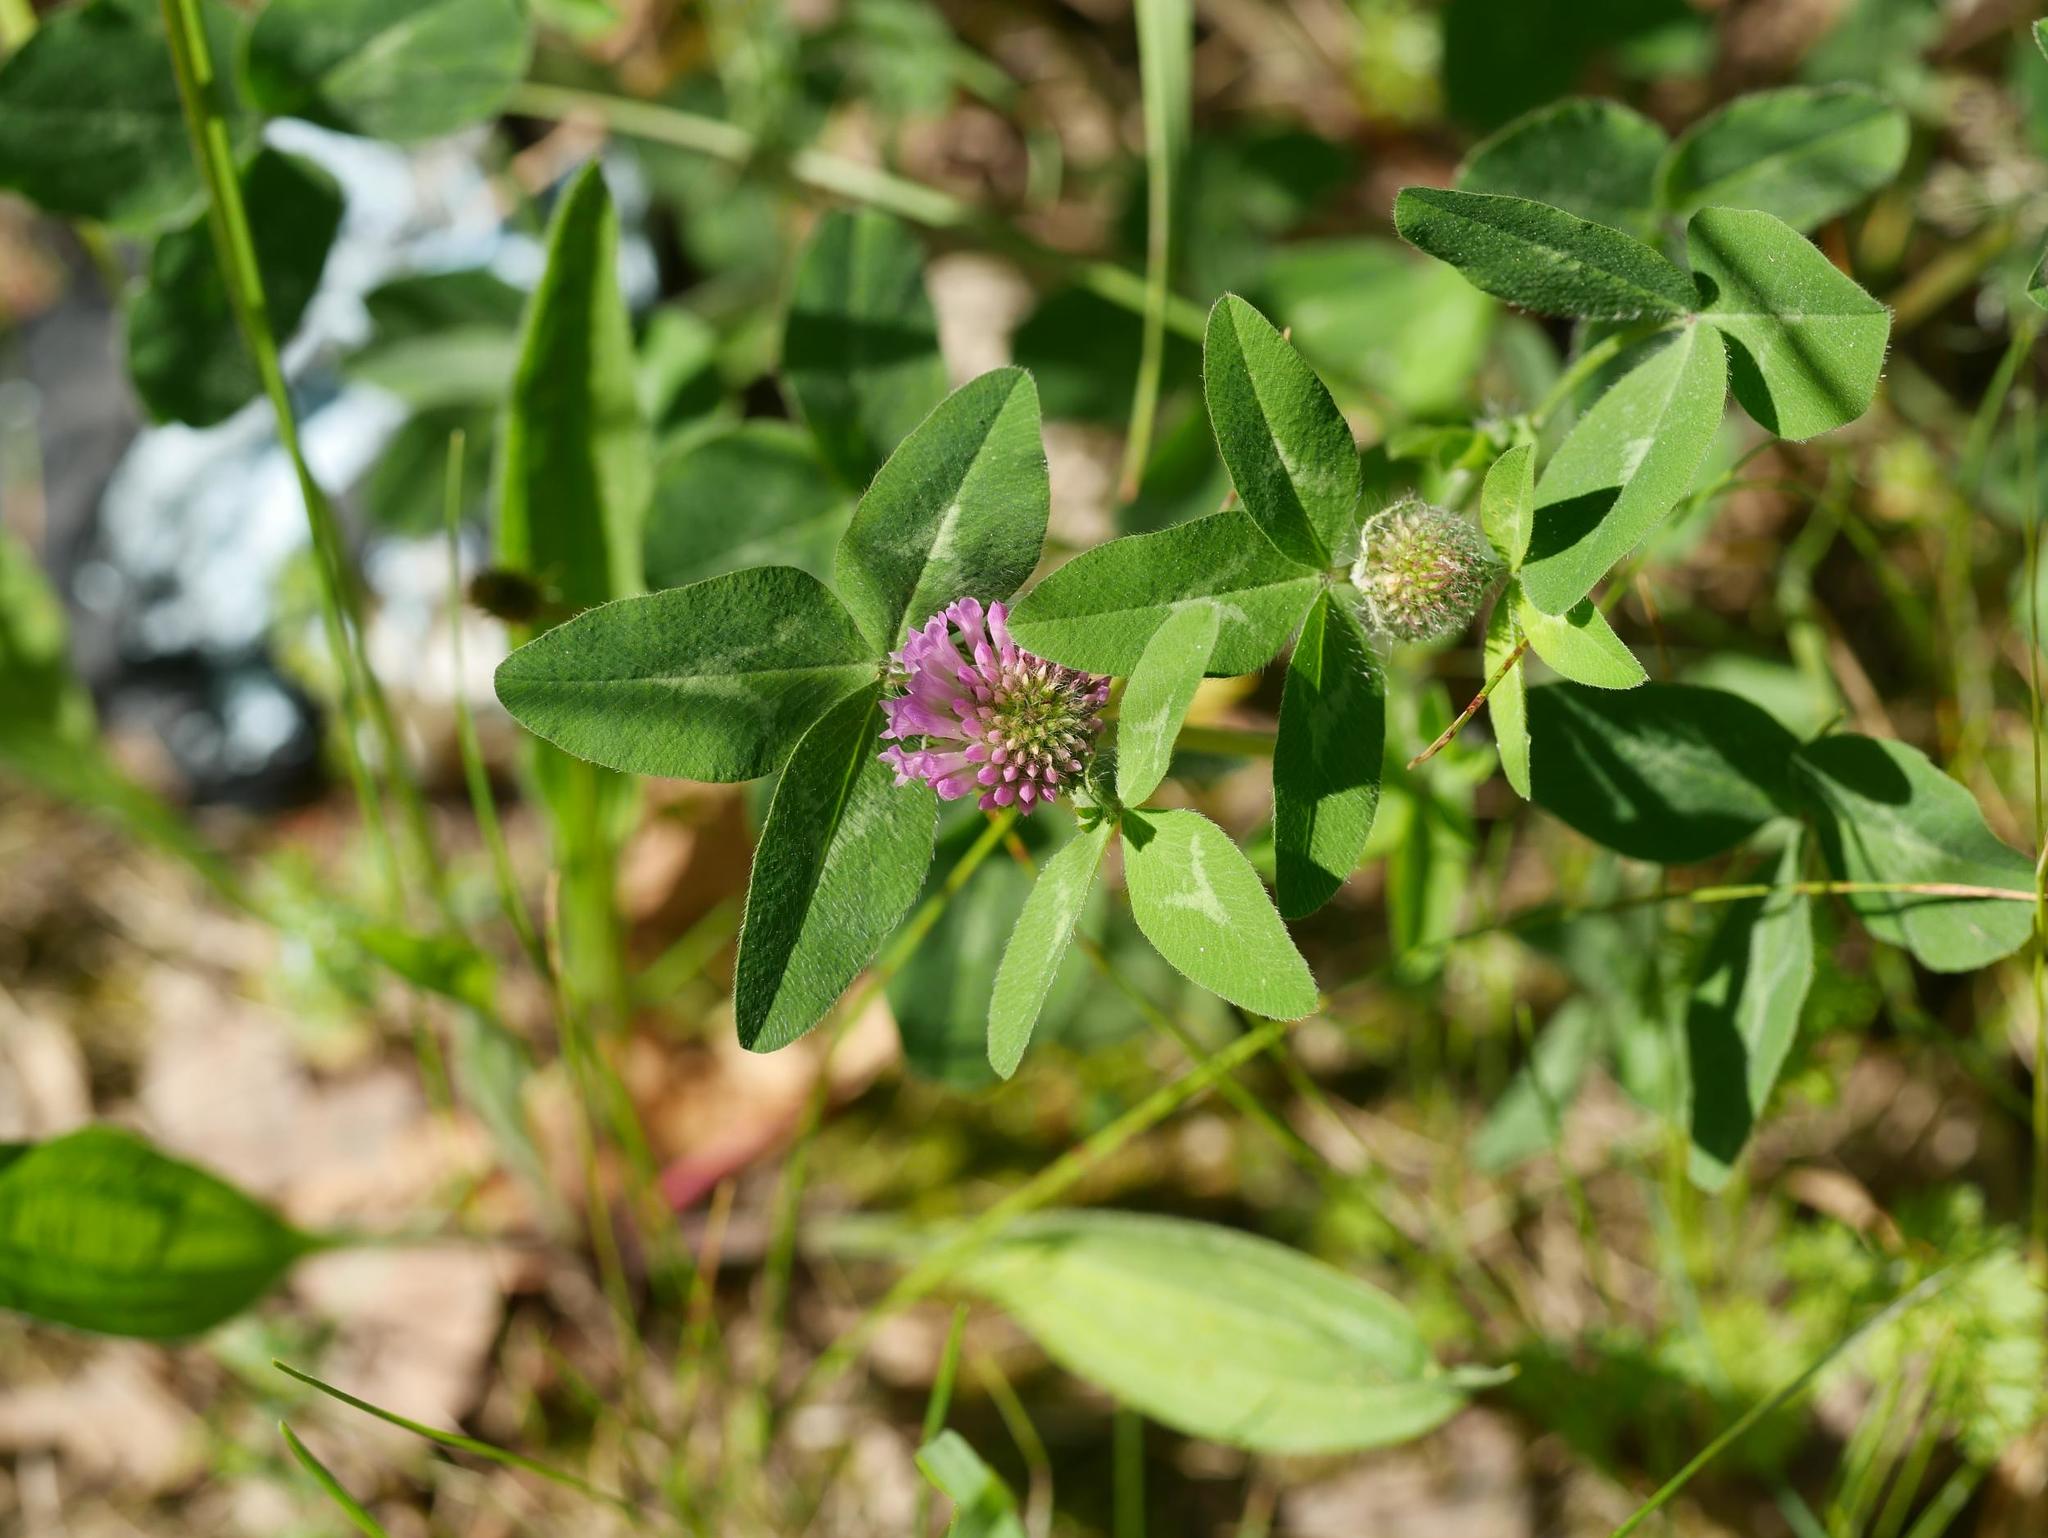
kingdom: Plantae
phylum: Tracheophyta
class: Magnoliopsida
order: Fabales
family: Fabaceae
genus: Trifolium
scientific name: Trifolium pratense
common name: Red clover
